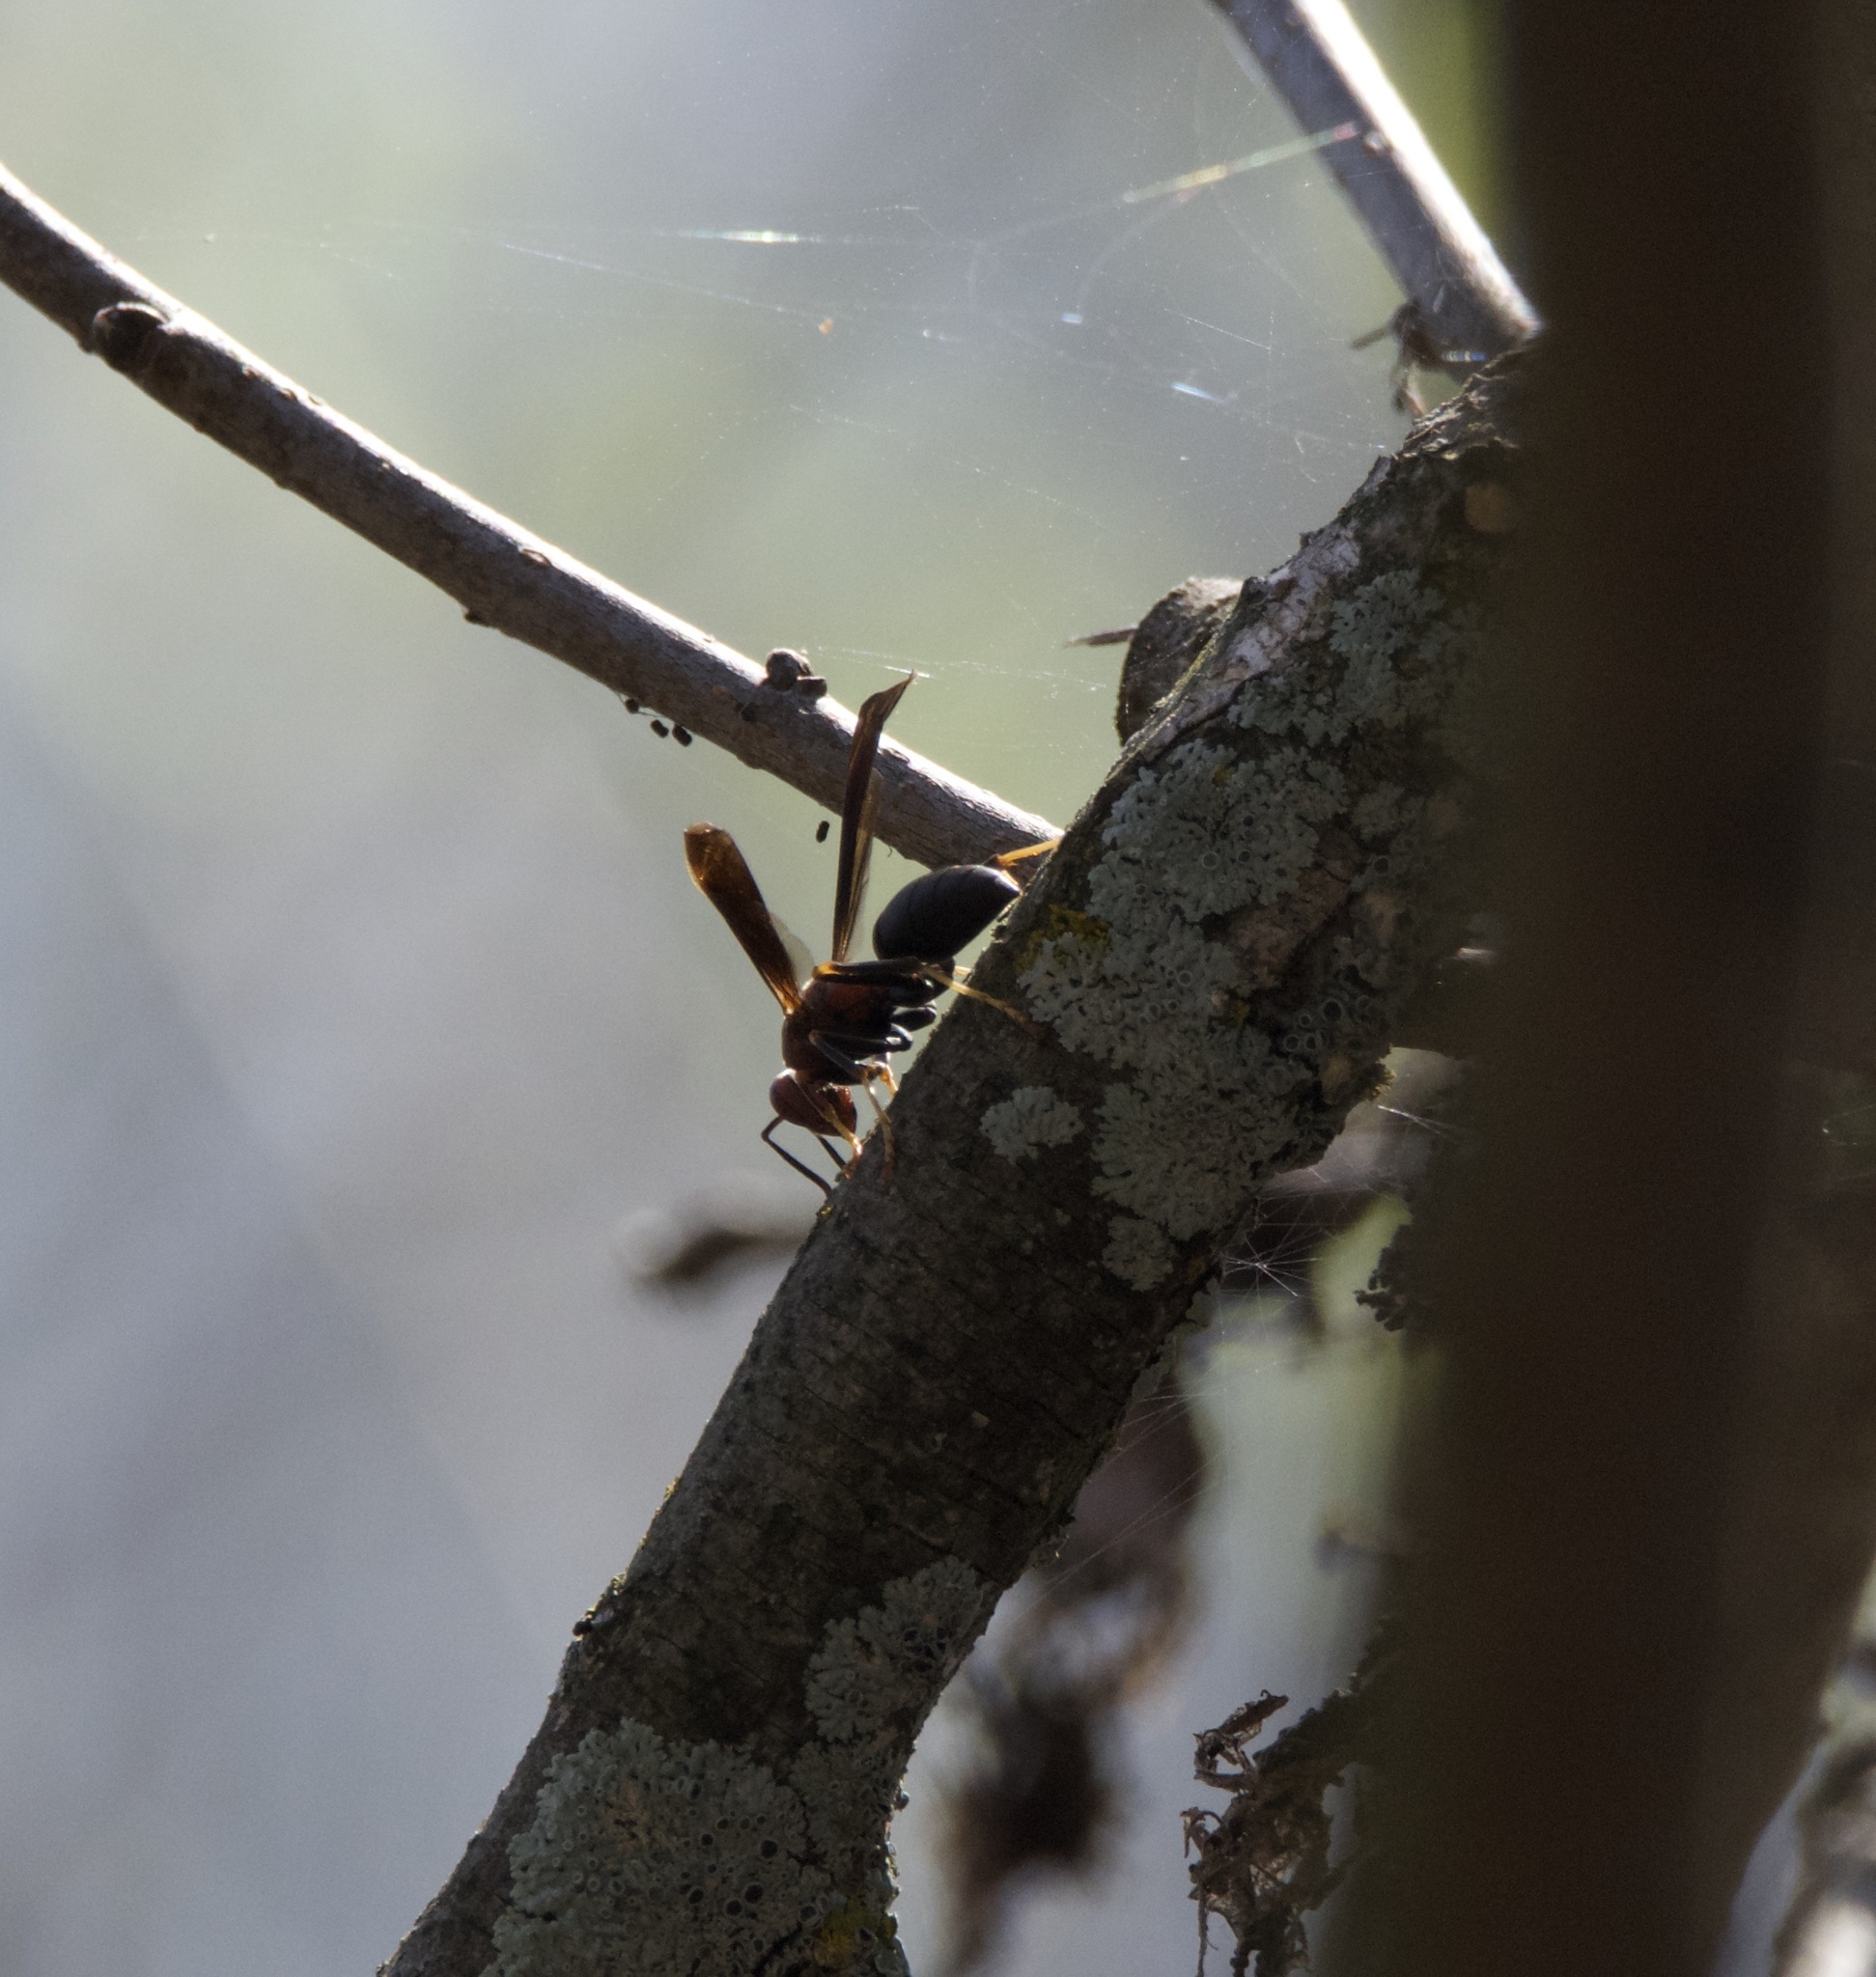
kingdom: Animalia
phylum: Arthropoda
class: Insecta
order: Hymenoptera
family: Eumenidae
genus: Polistes
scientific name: Polistes metricus
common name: Metric paper wasp
